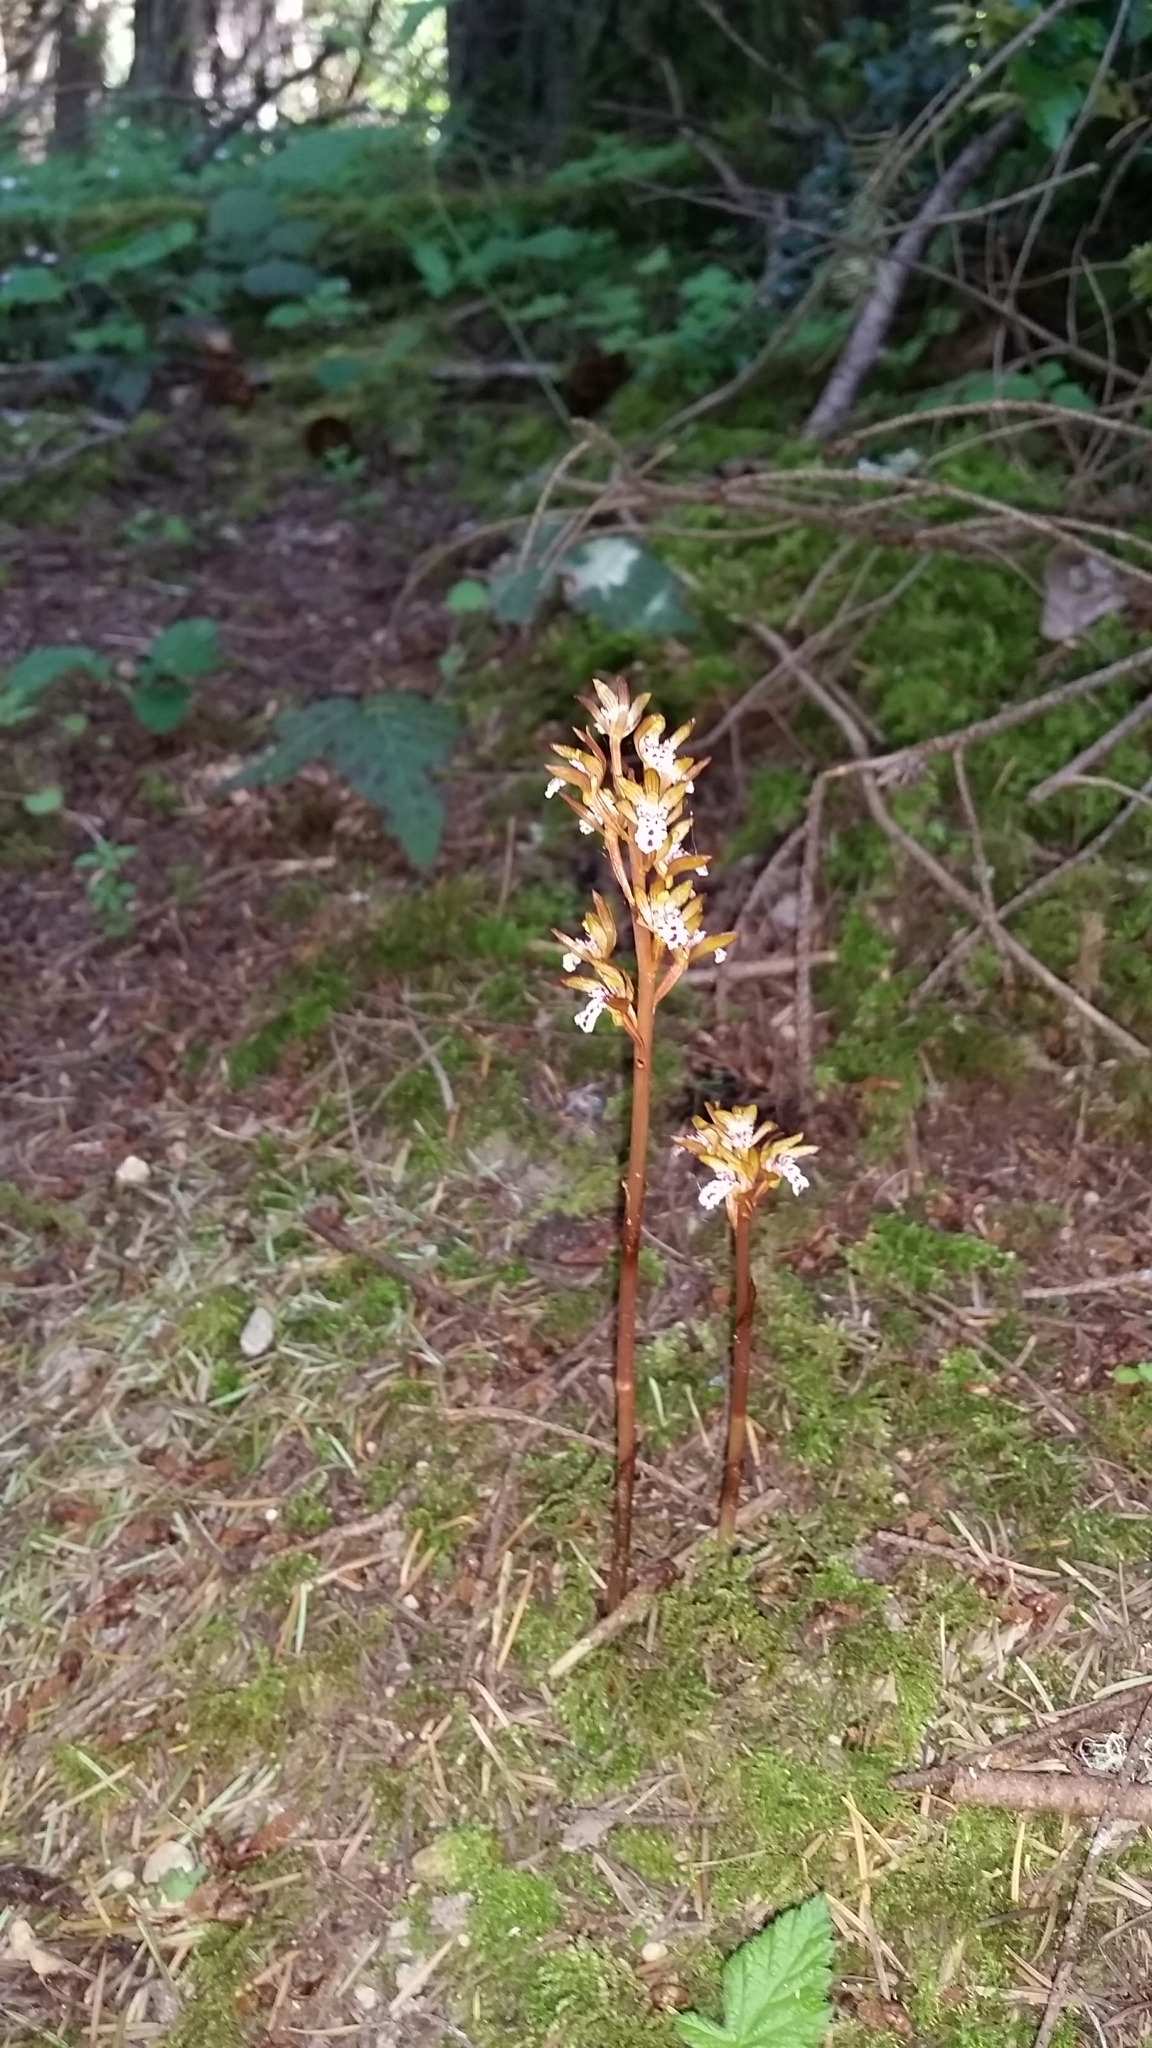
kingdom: Plantae
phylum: Tracheophyta
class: Liliopsida
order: Asparagales
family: Orchidaceae
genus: Corallorhiza
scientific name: Corallorhiza maculata
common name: Spotted coralroot
